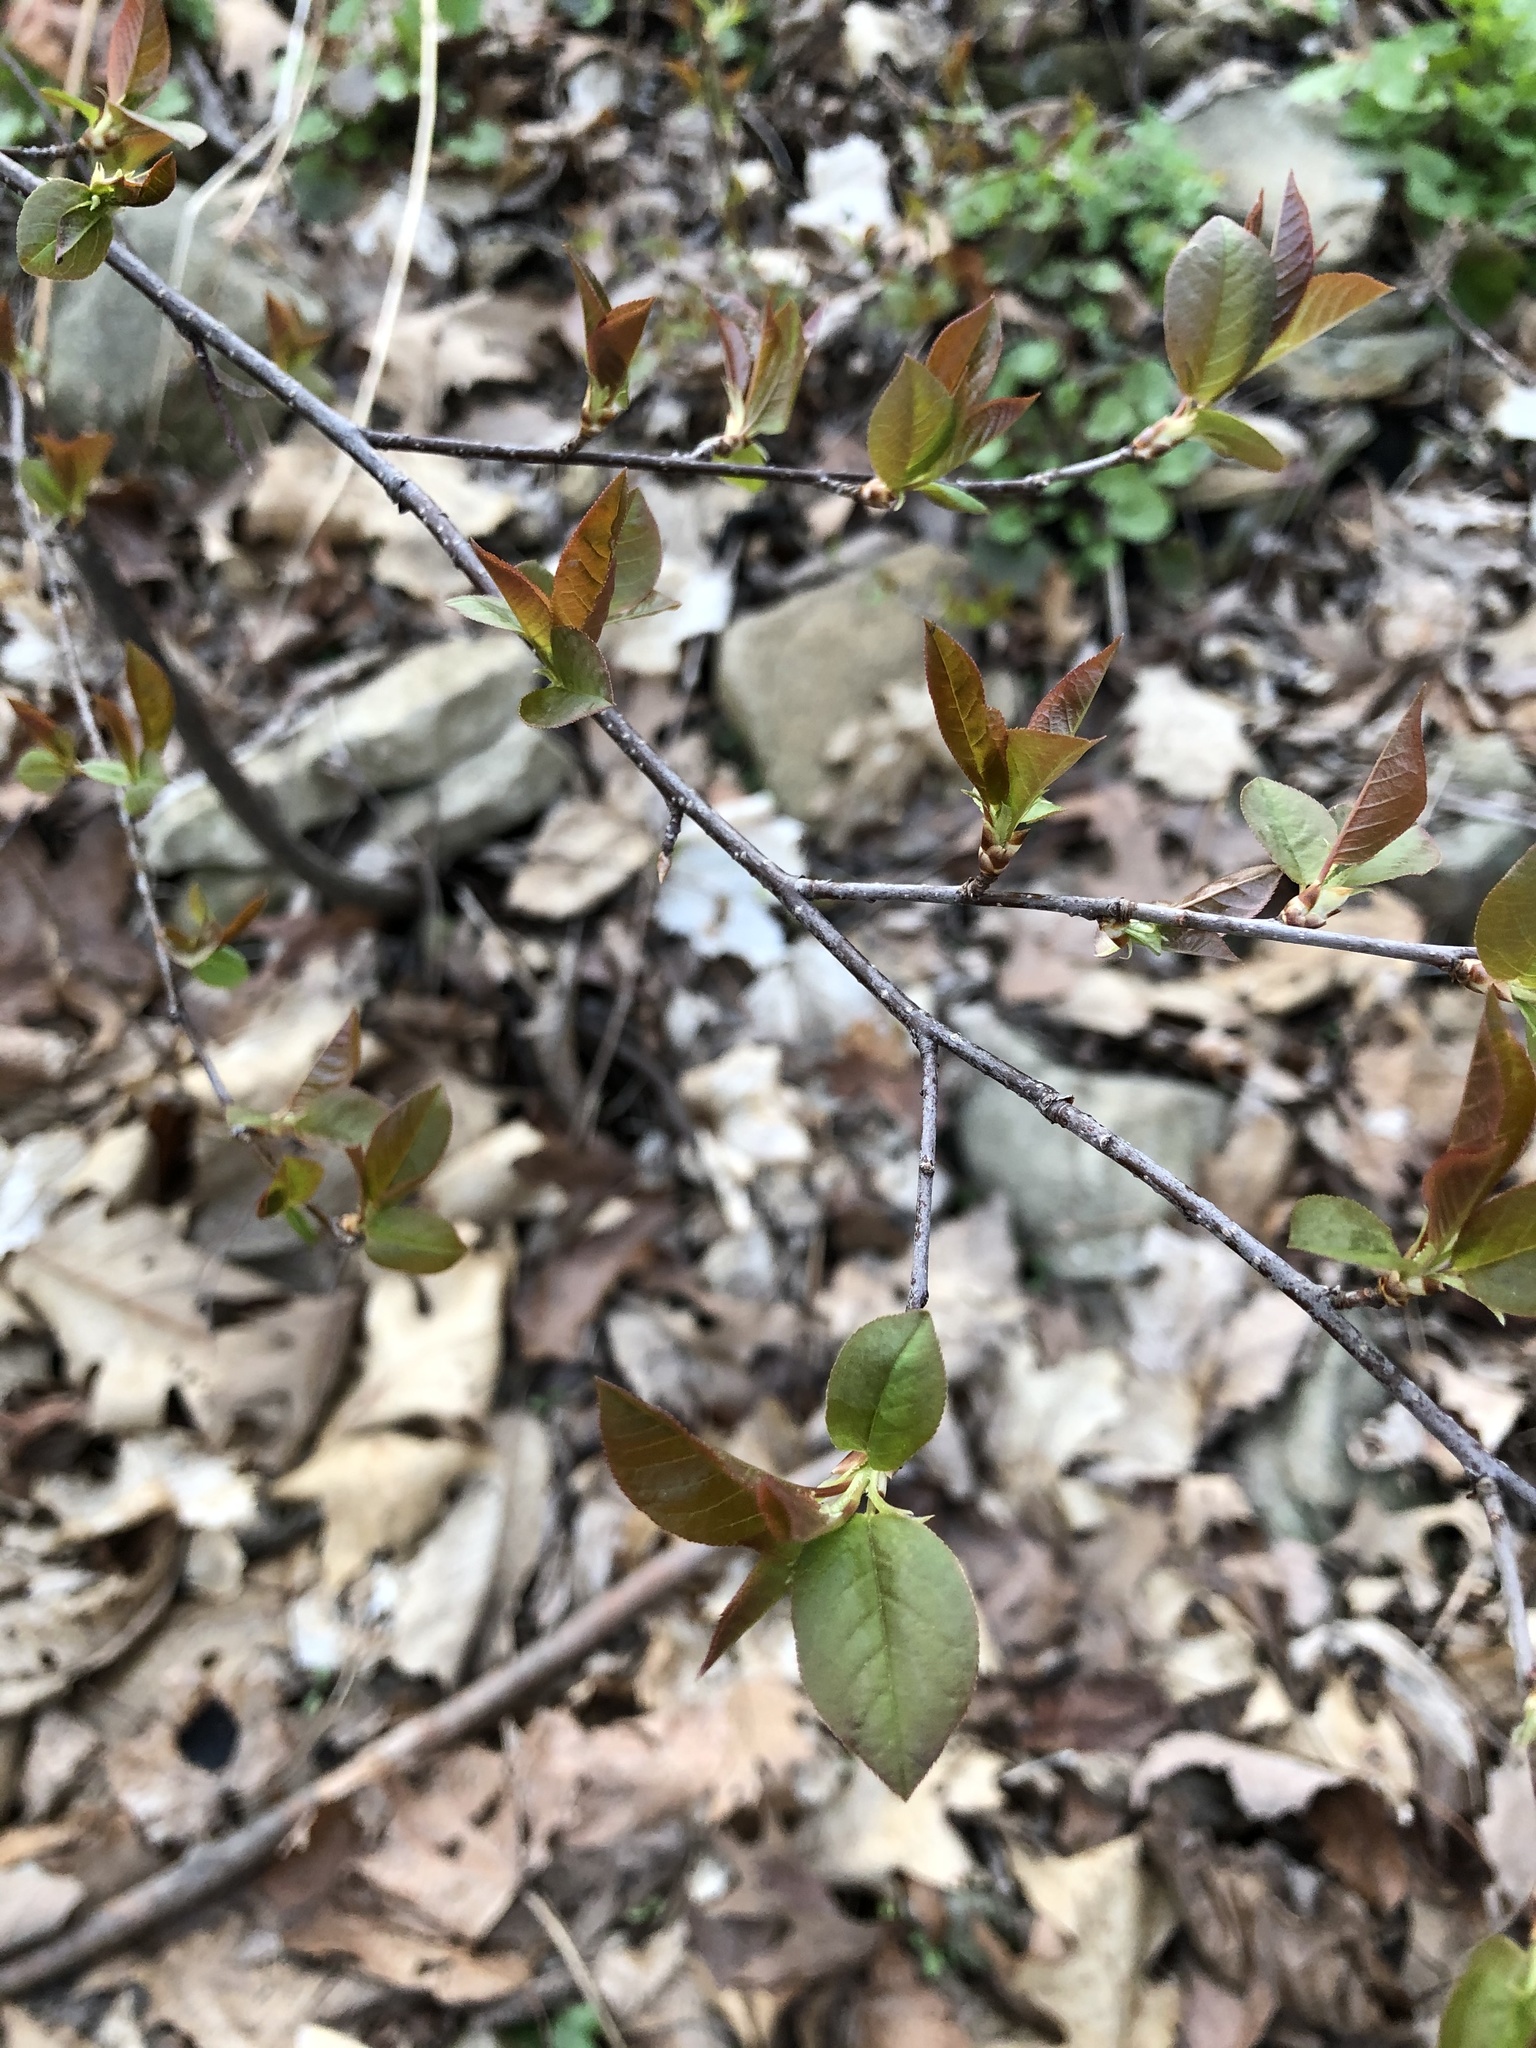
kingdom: Plantae
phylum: Tracheophyta
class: Magnoliopsida
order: Rosales
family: Rosaceae
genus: Prunus
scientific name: Prunus virginiana
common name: Chokecherry
